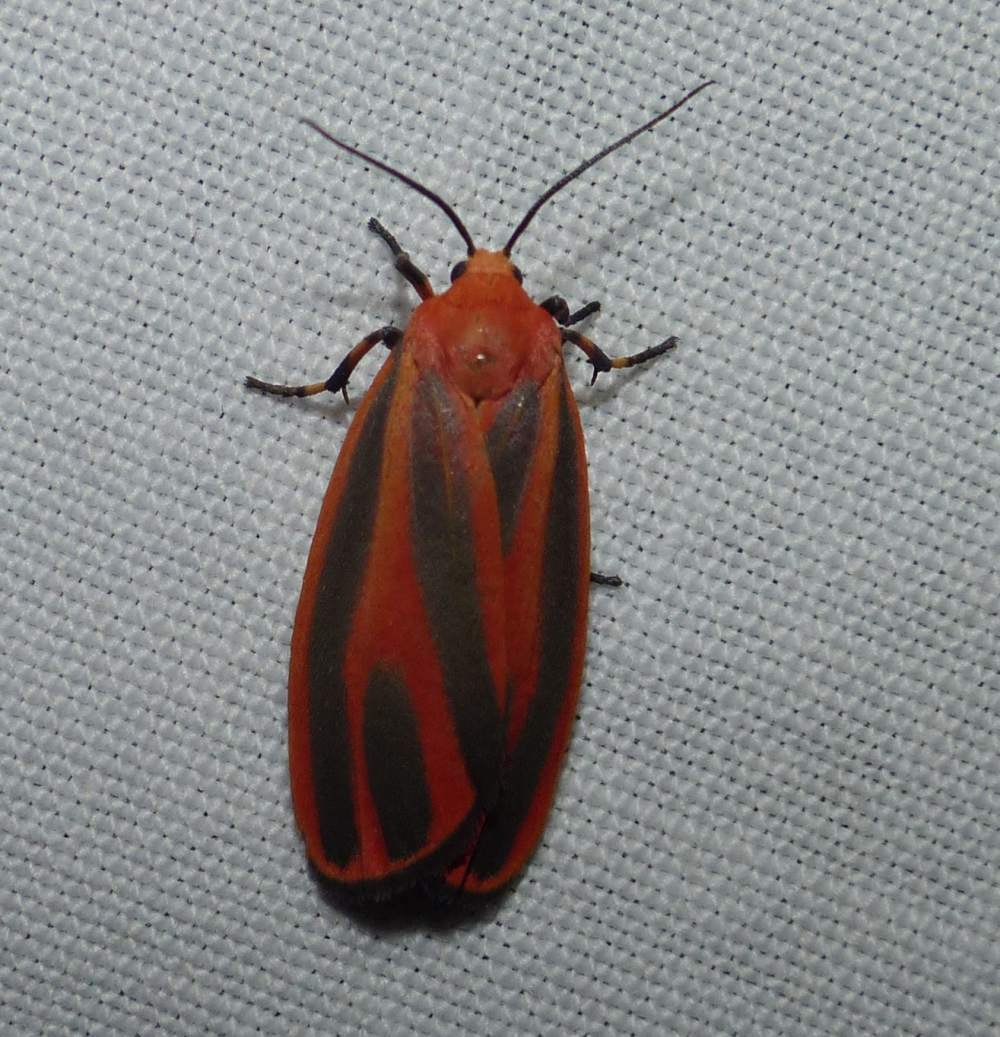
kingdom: Animalia
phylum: Arthropoda
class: Insecta
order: Lepidoptera
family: Erebidae
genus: Hypoprepia
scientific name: Hypoprepia miniata
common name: Scarlet-winged lichen moth
